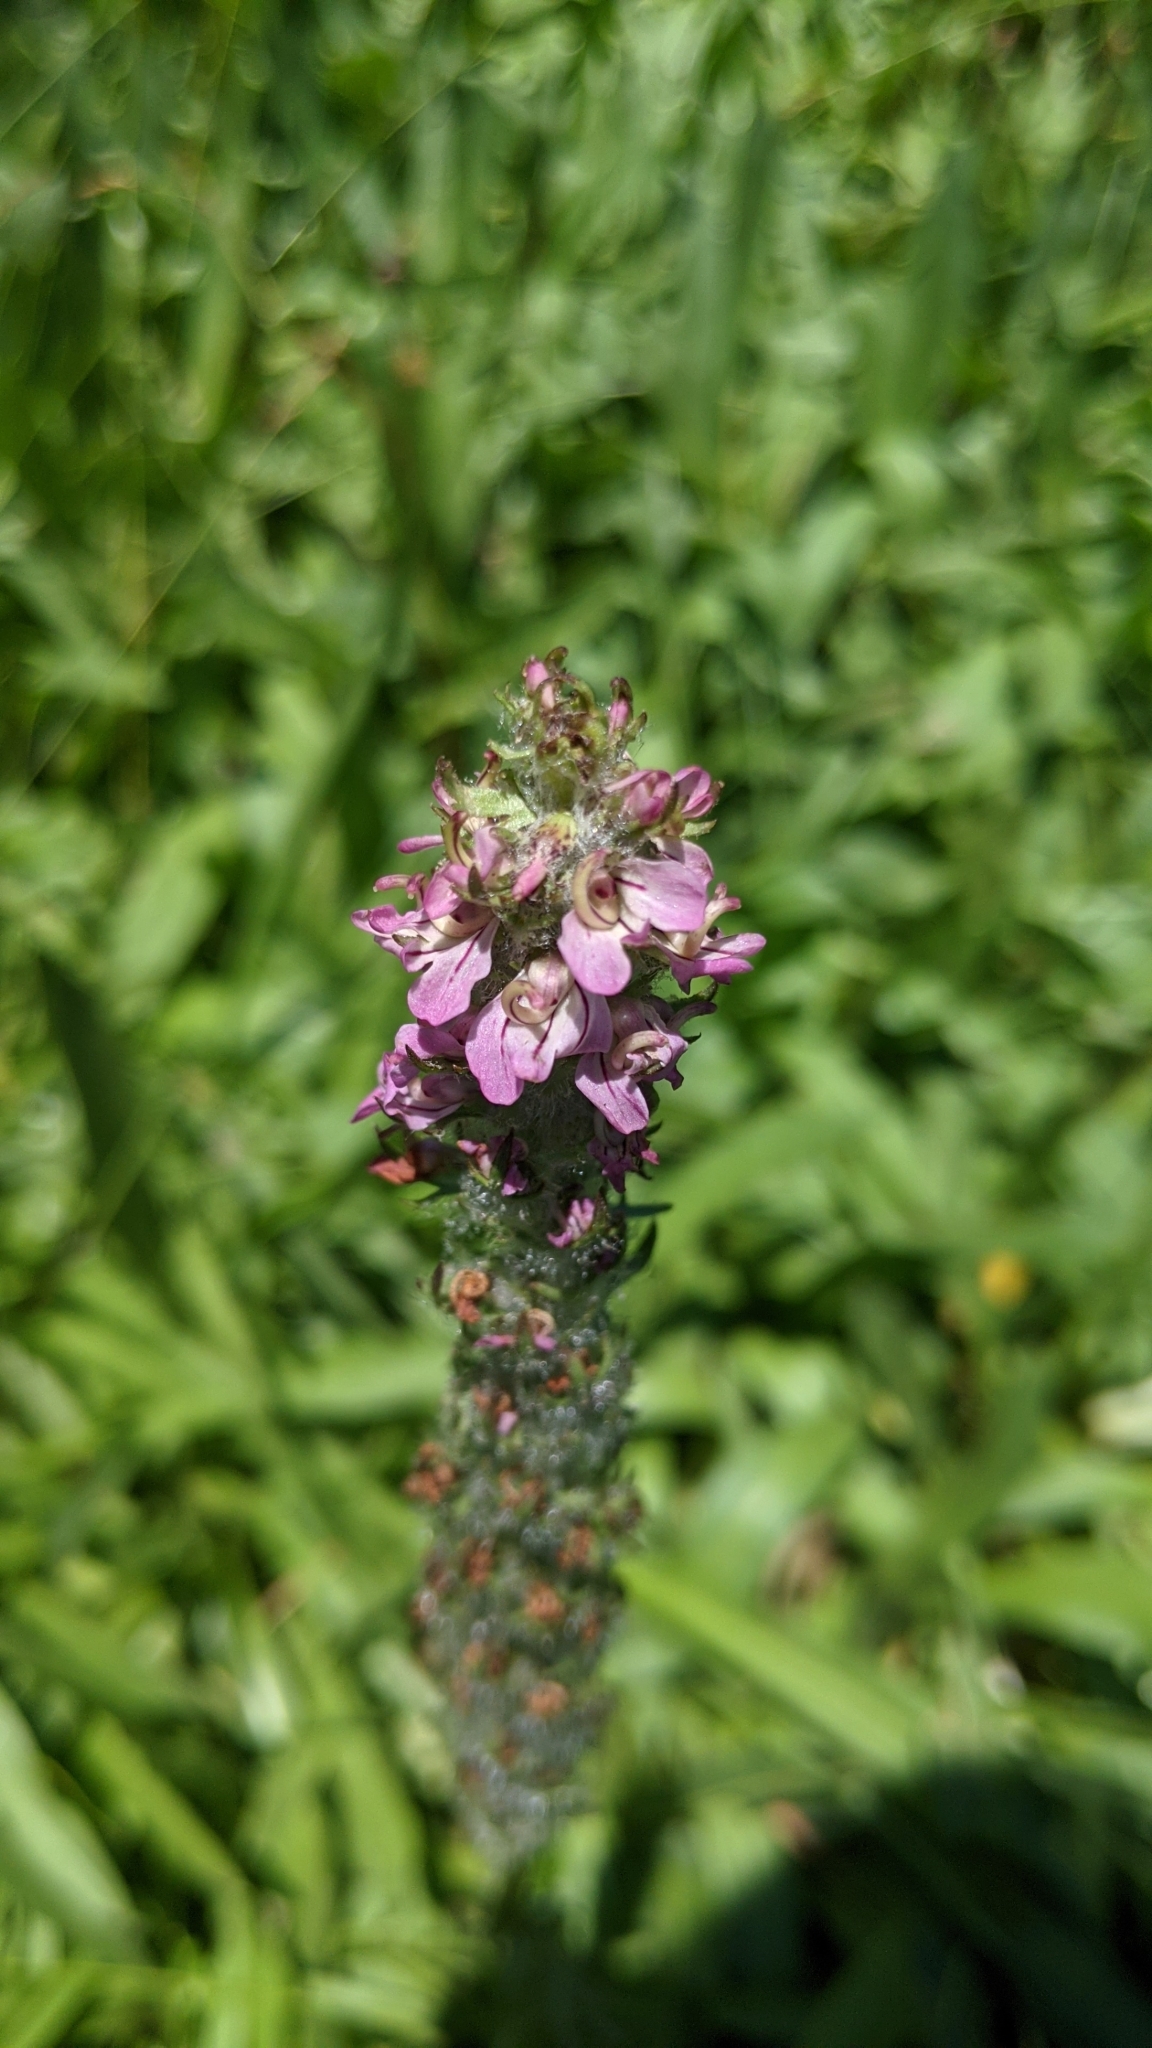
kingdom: Plantae
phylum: Tracheophyta
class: Magnoliopsida
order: Lamiales
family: Orobanchaceae
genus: Pedicularis
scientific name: Pedicularis attollens
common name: Slender pedicularis
